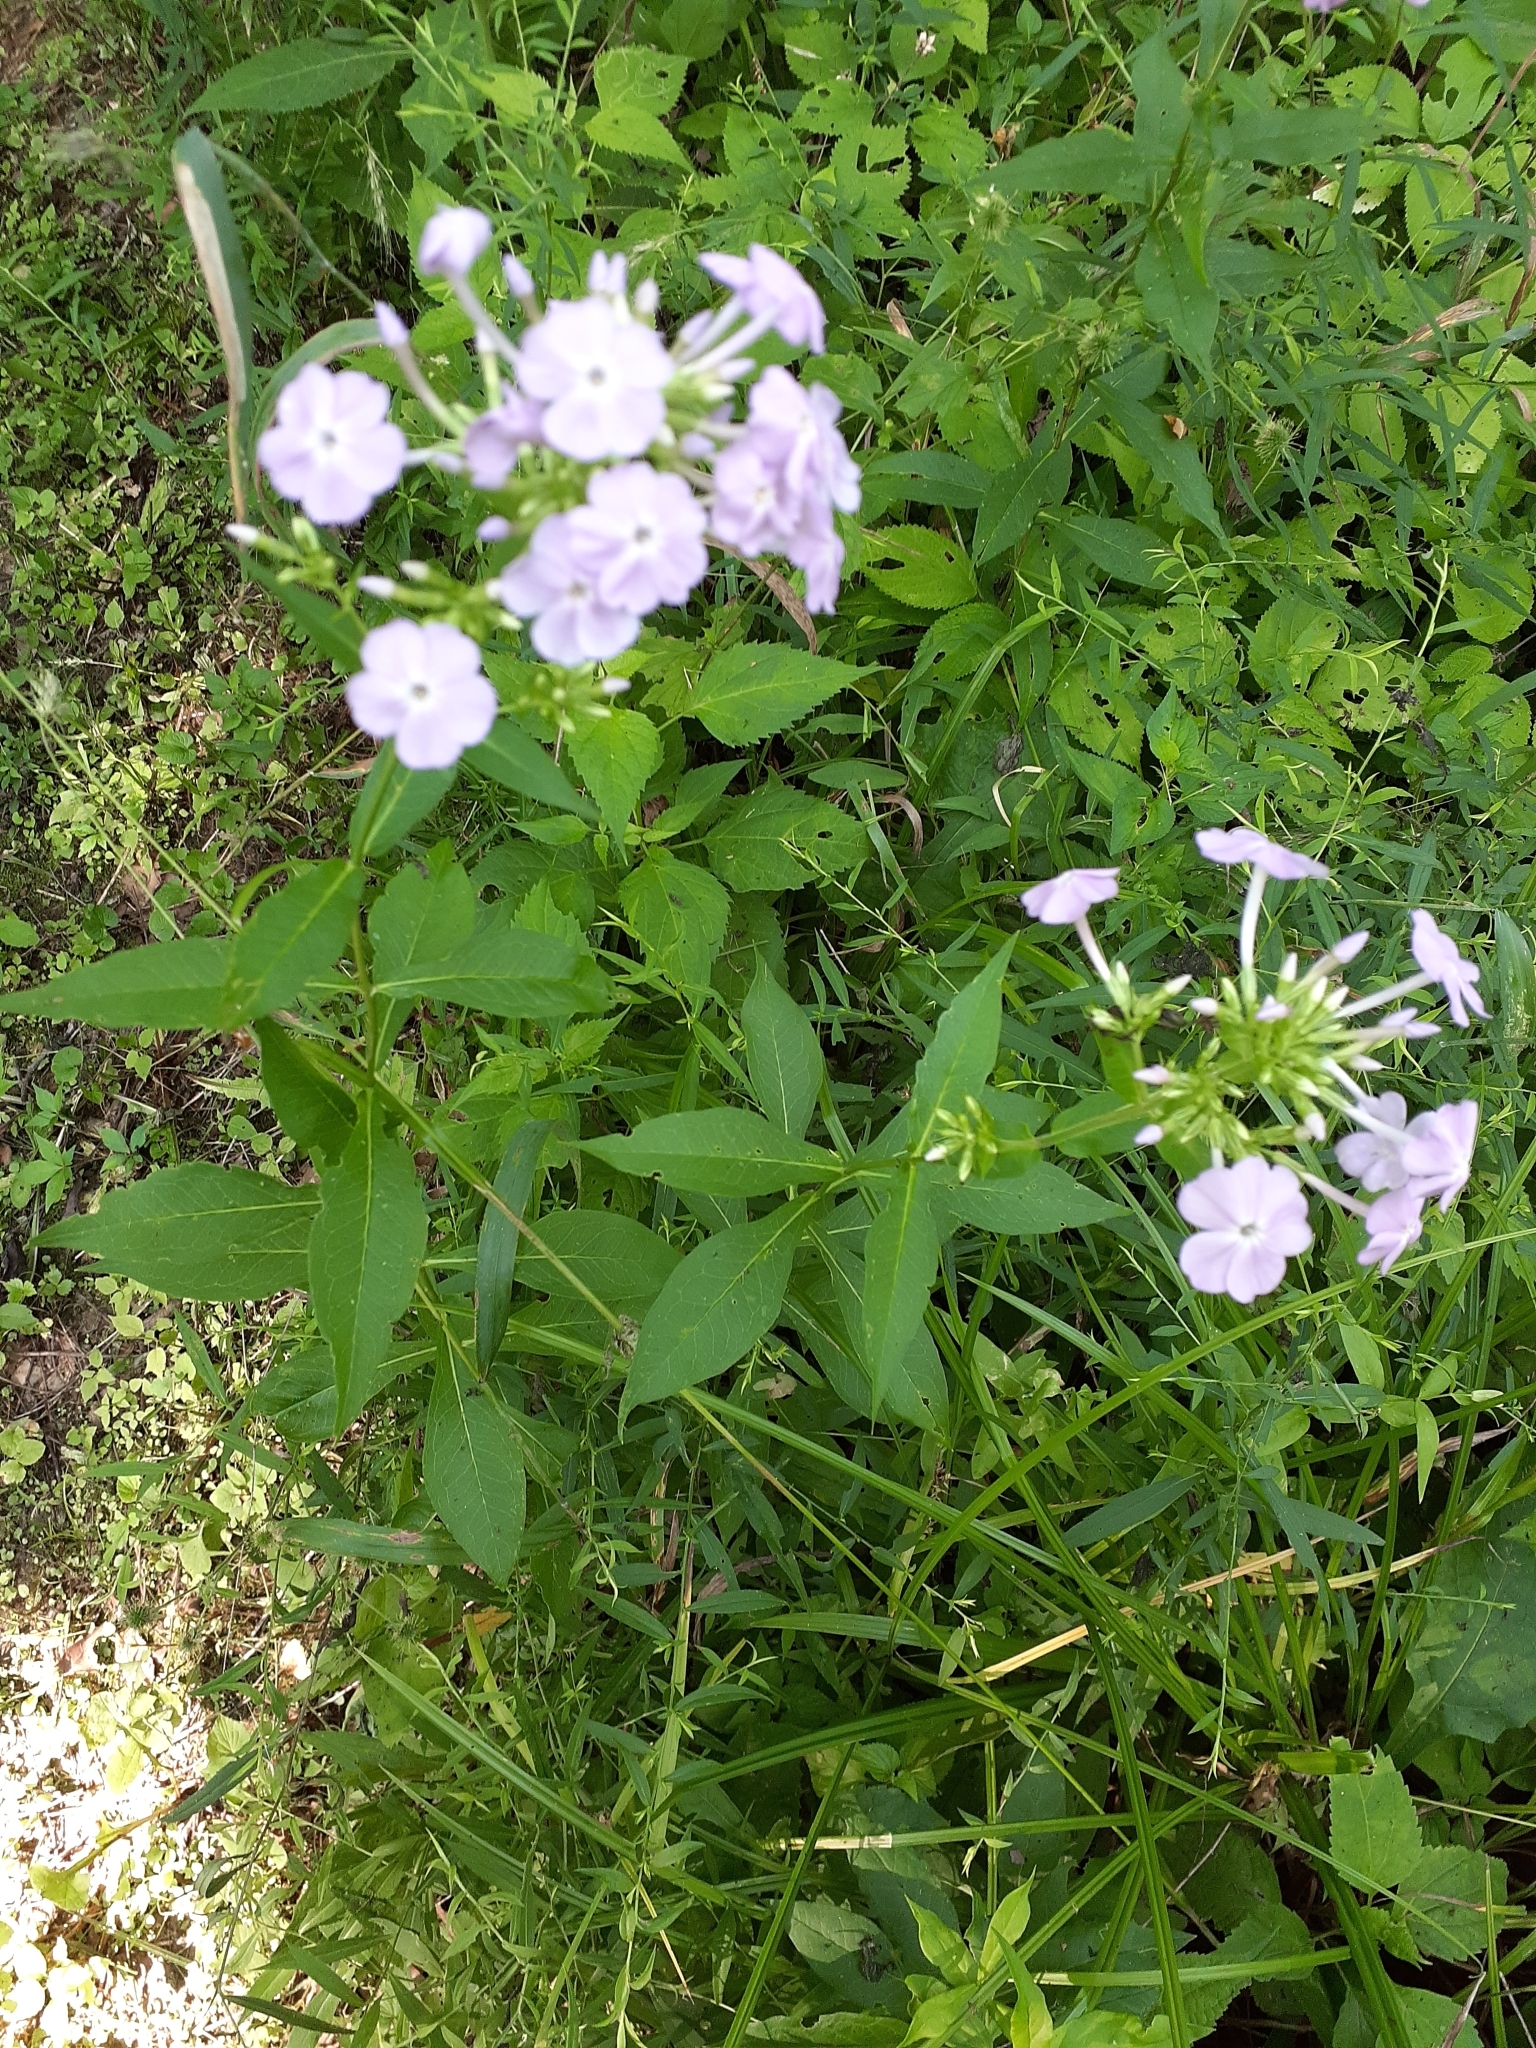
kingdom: Plantae
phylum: Tracheophyta
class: Magnoliopsida
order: Ericales
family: Polemoniaceae
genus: Phlox
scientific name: Phlox paniculata
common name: Fall phlox
